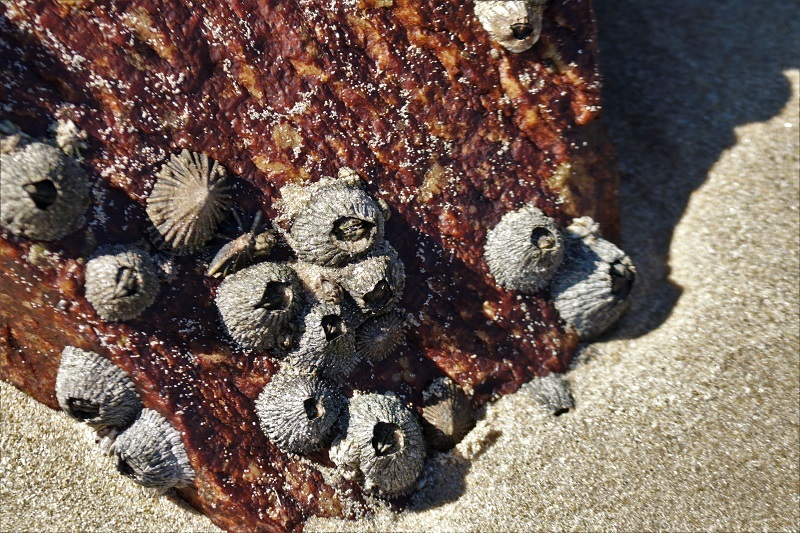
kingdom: Animalia
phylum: Arthropoda
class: Maxillopoda
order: Sessilia
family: Tetraclitidae
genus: Tetraclita
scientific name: Tetraclita serrata
